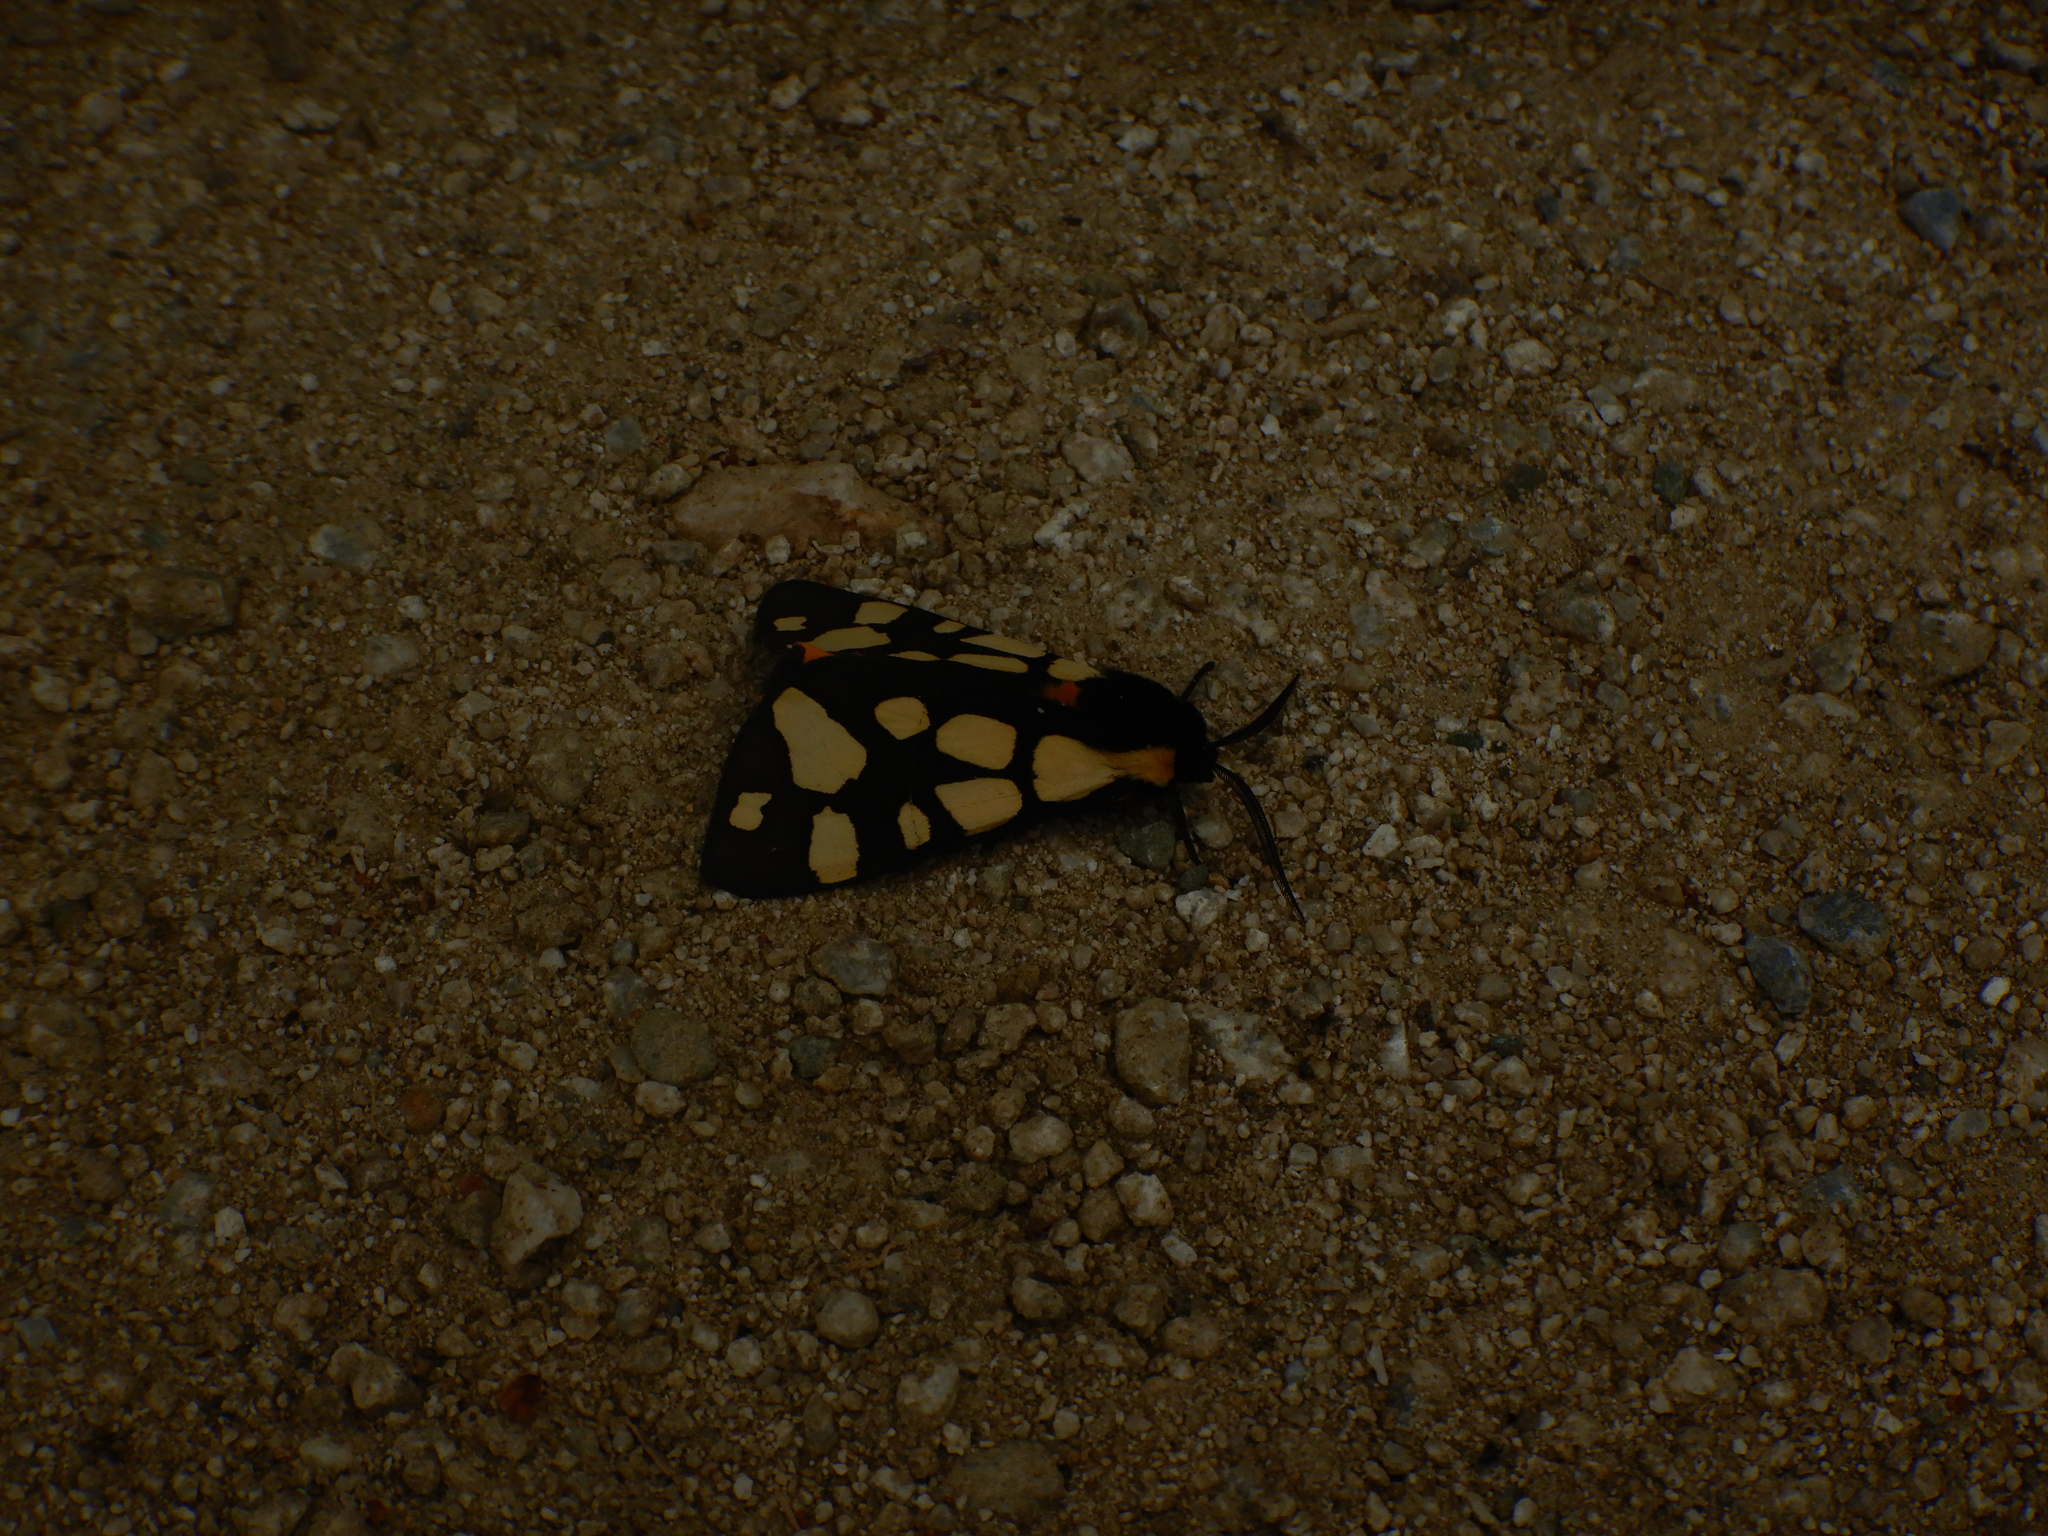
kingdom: Animalia
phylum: Arthropoda
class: Insecta
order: Lepidoptera
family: Erebidae
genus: Epicallia
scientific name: Epicallia villica
